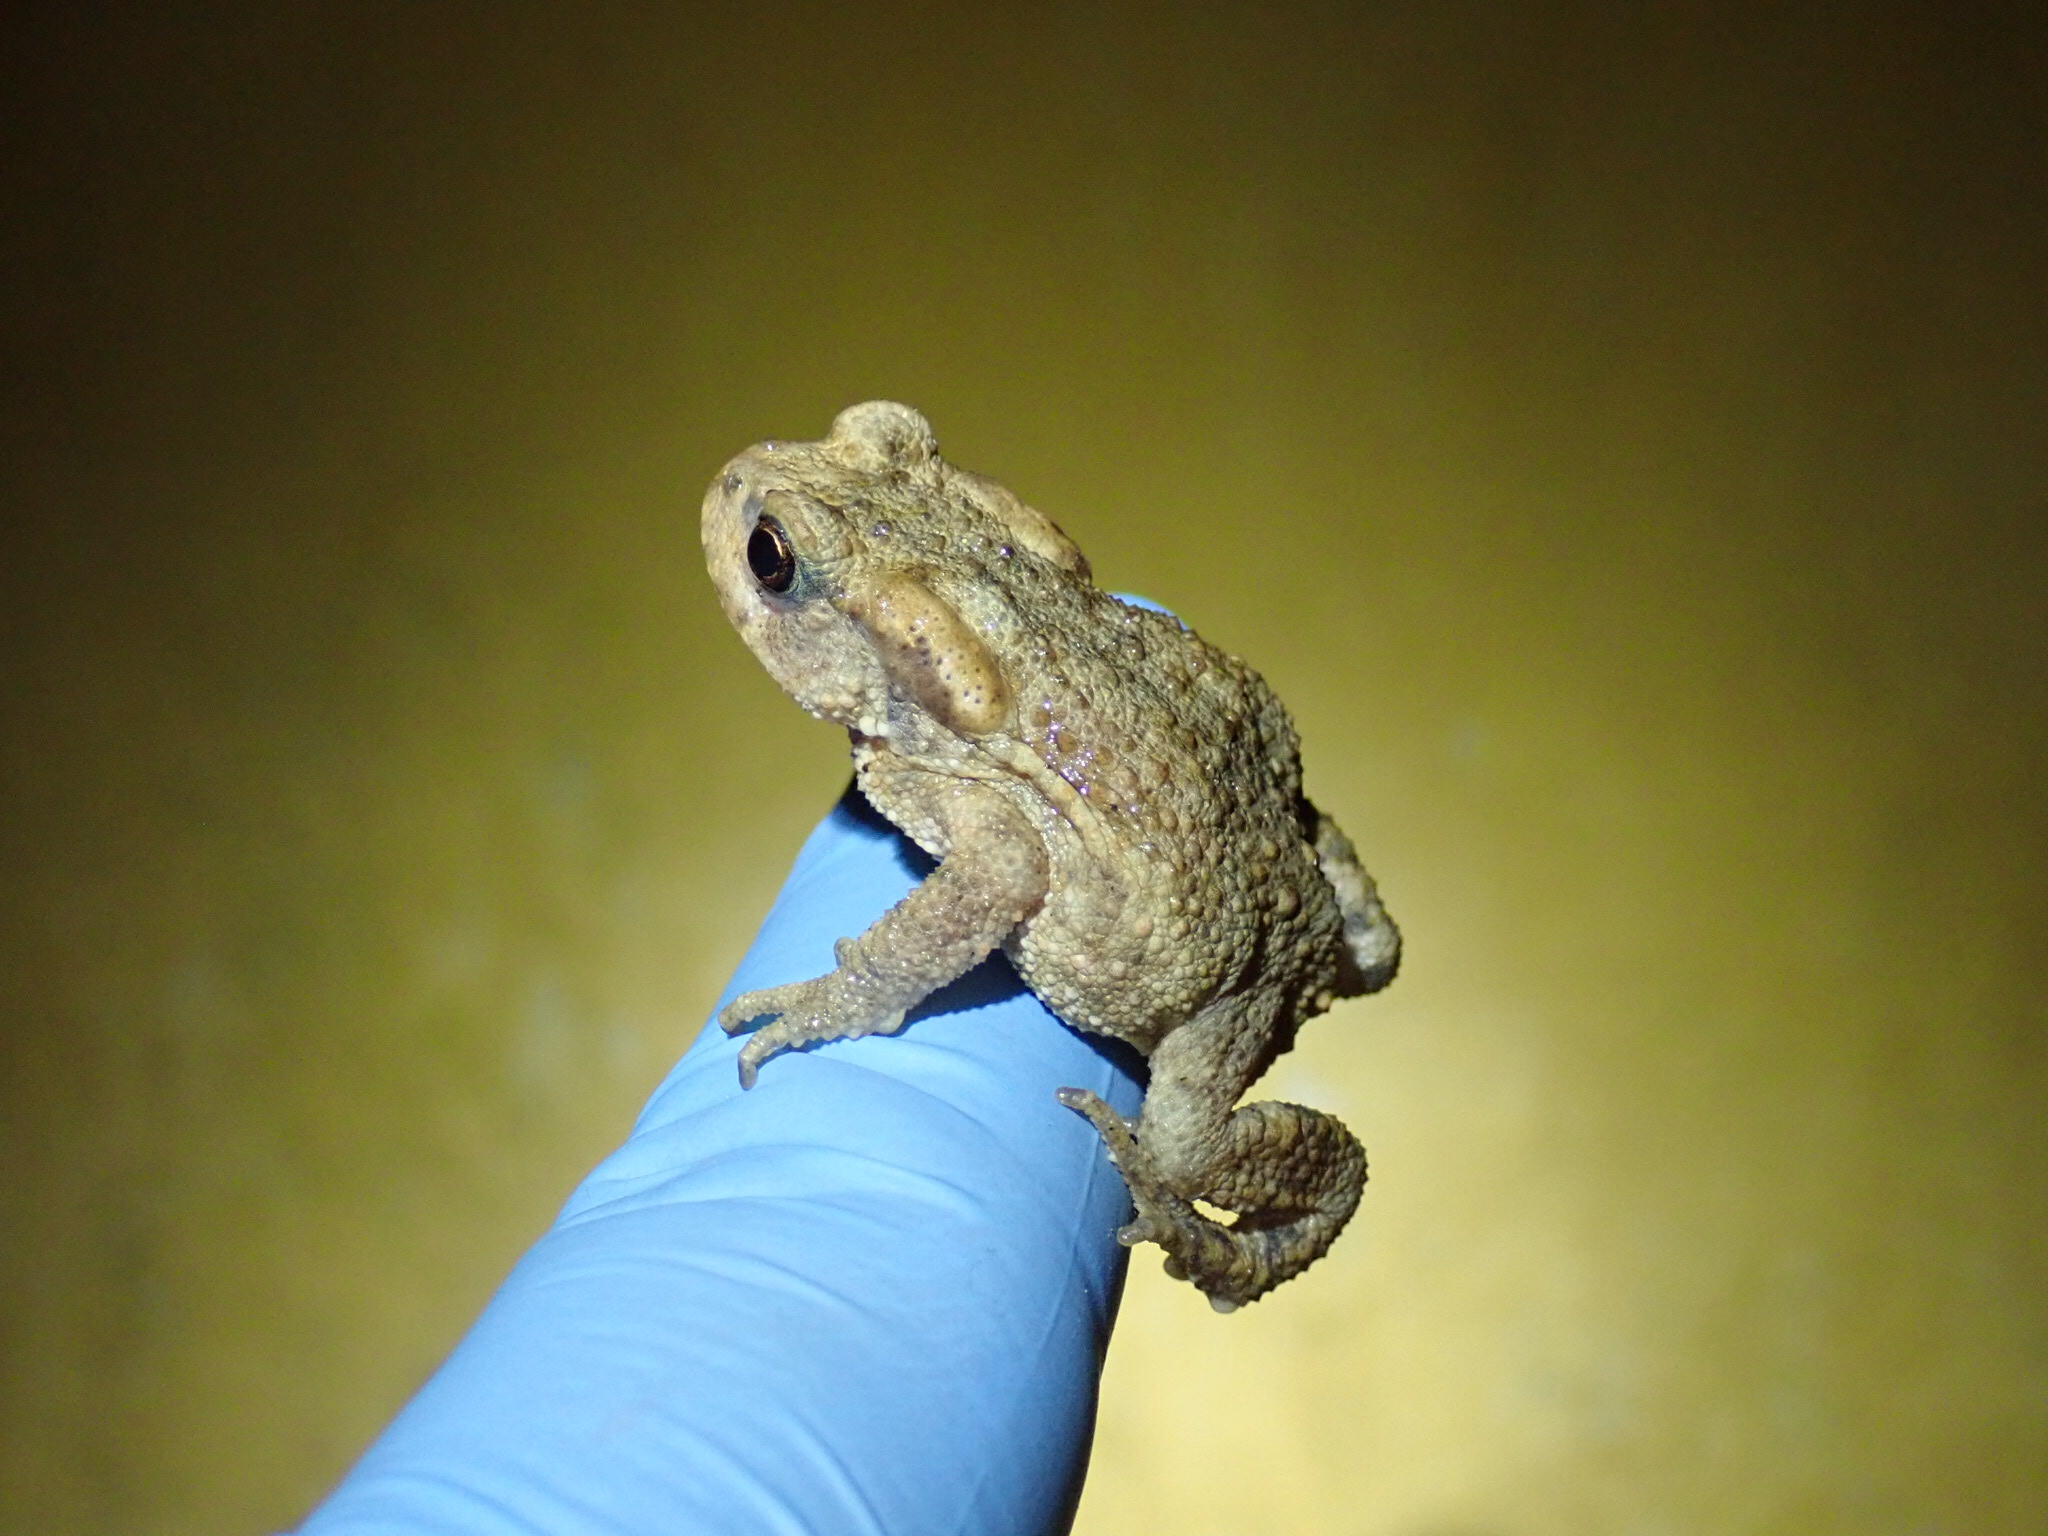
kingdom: Animalia
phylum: Chordata
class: Amphibia
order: Anura
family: Bufonidae
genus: Bufo
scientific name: Bufo spinosus
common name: Western common toad
